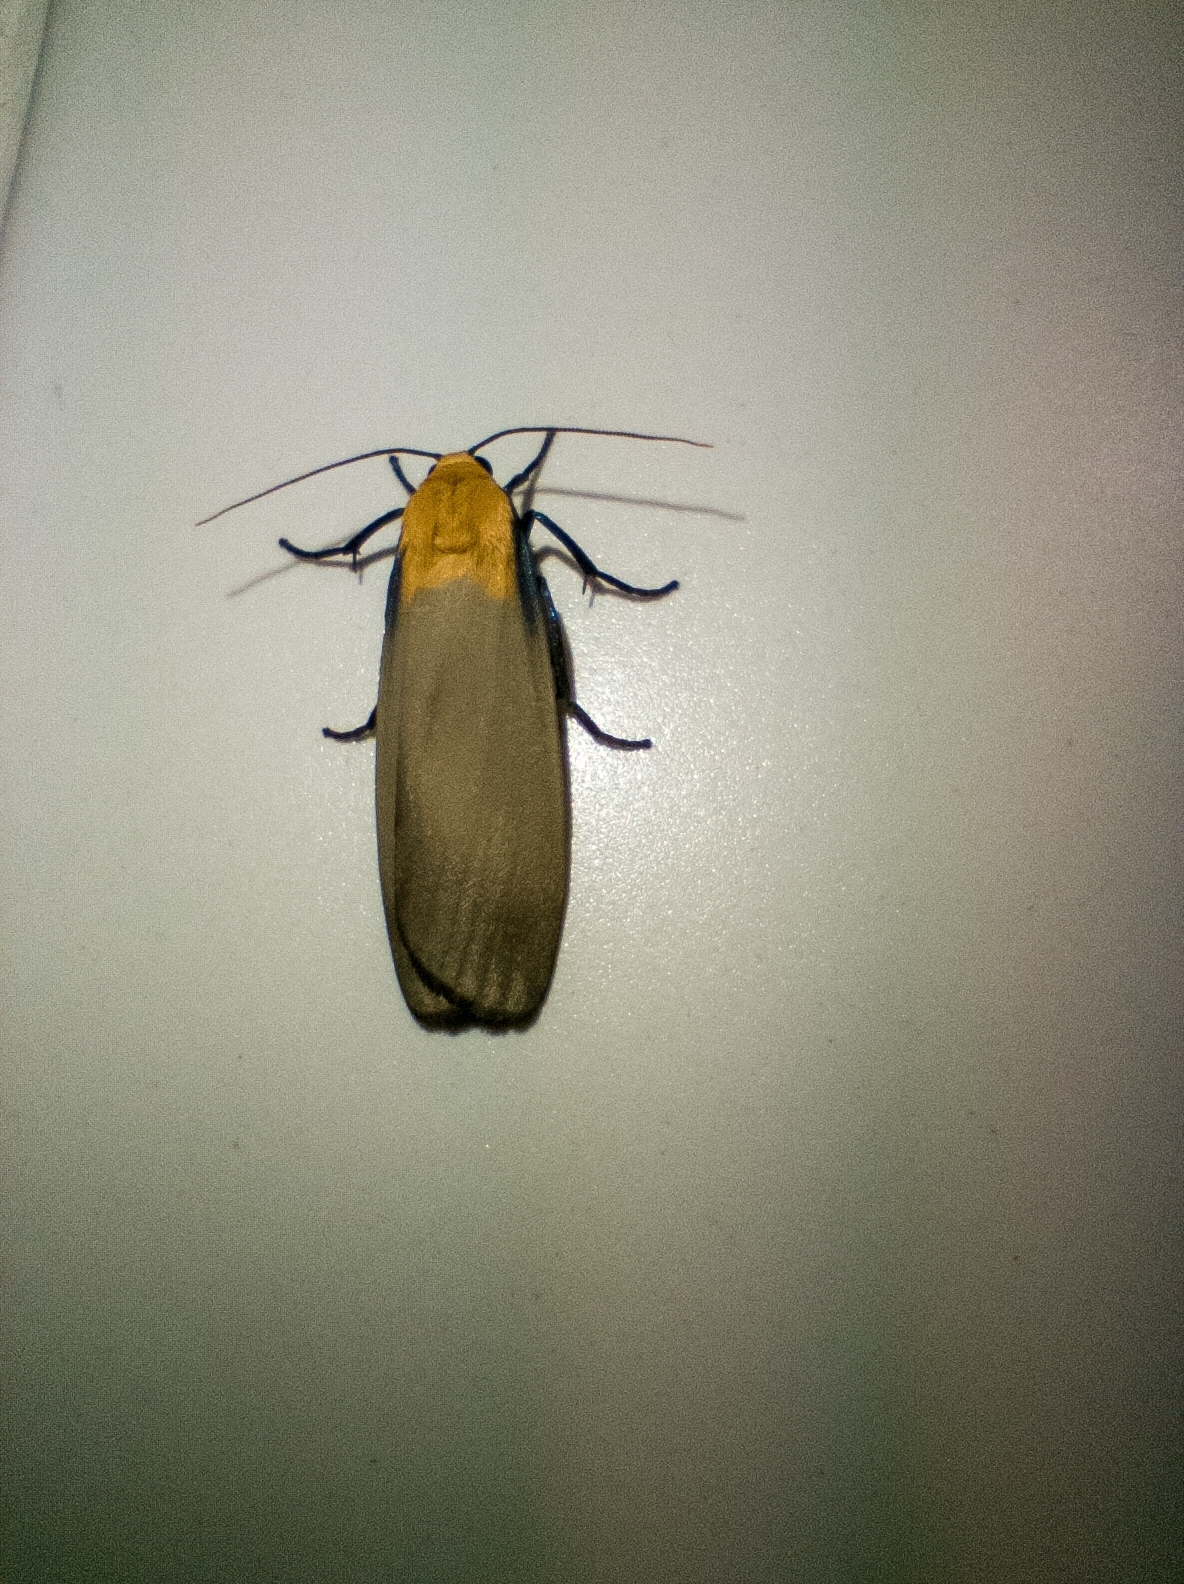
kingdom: Animalia
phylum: Arthropoda
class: Insecta
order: Lepidoptera
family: Erebidae
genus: Lithosia
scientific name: Lithosia quadra
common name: Four-spotted footman
